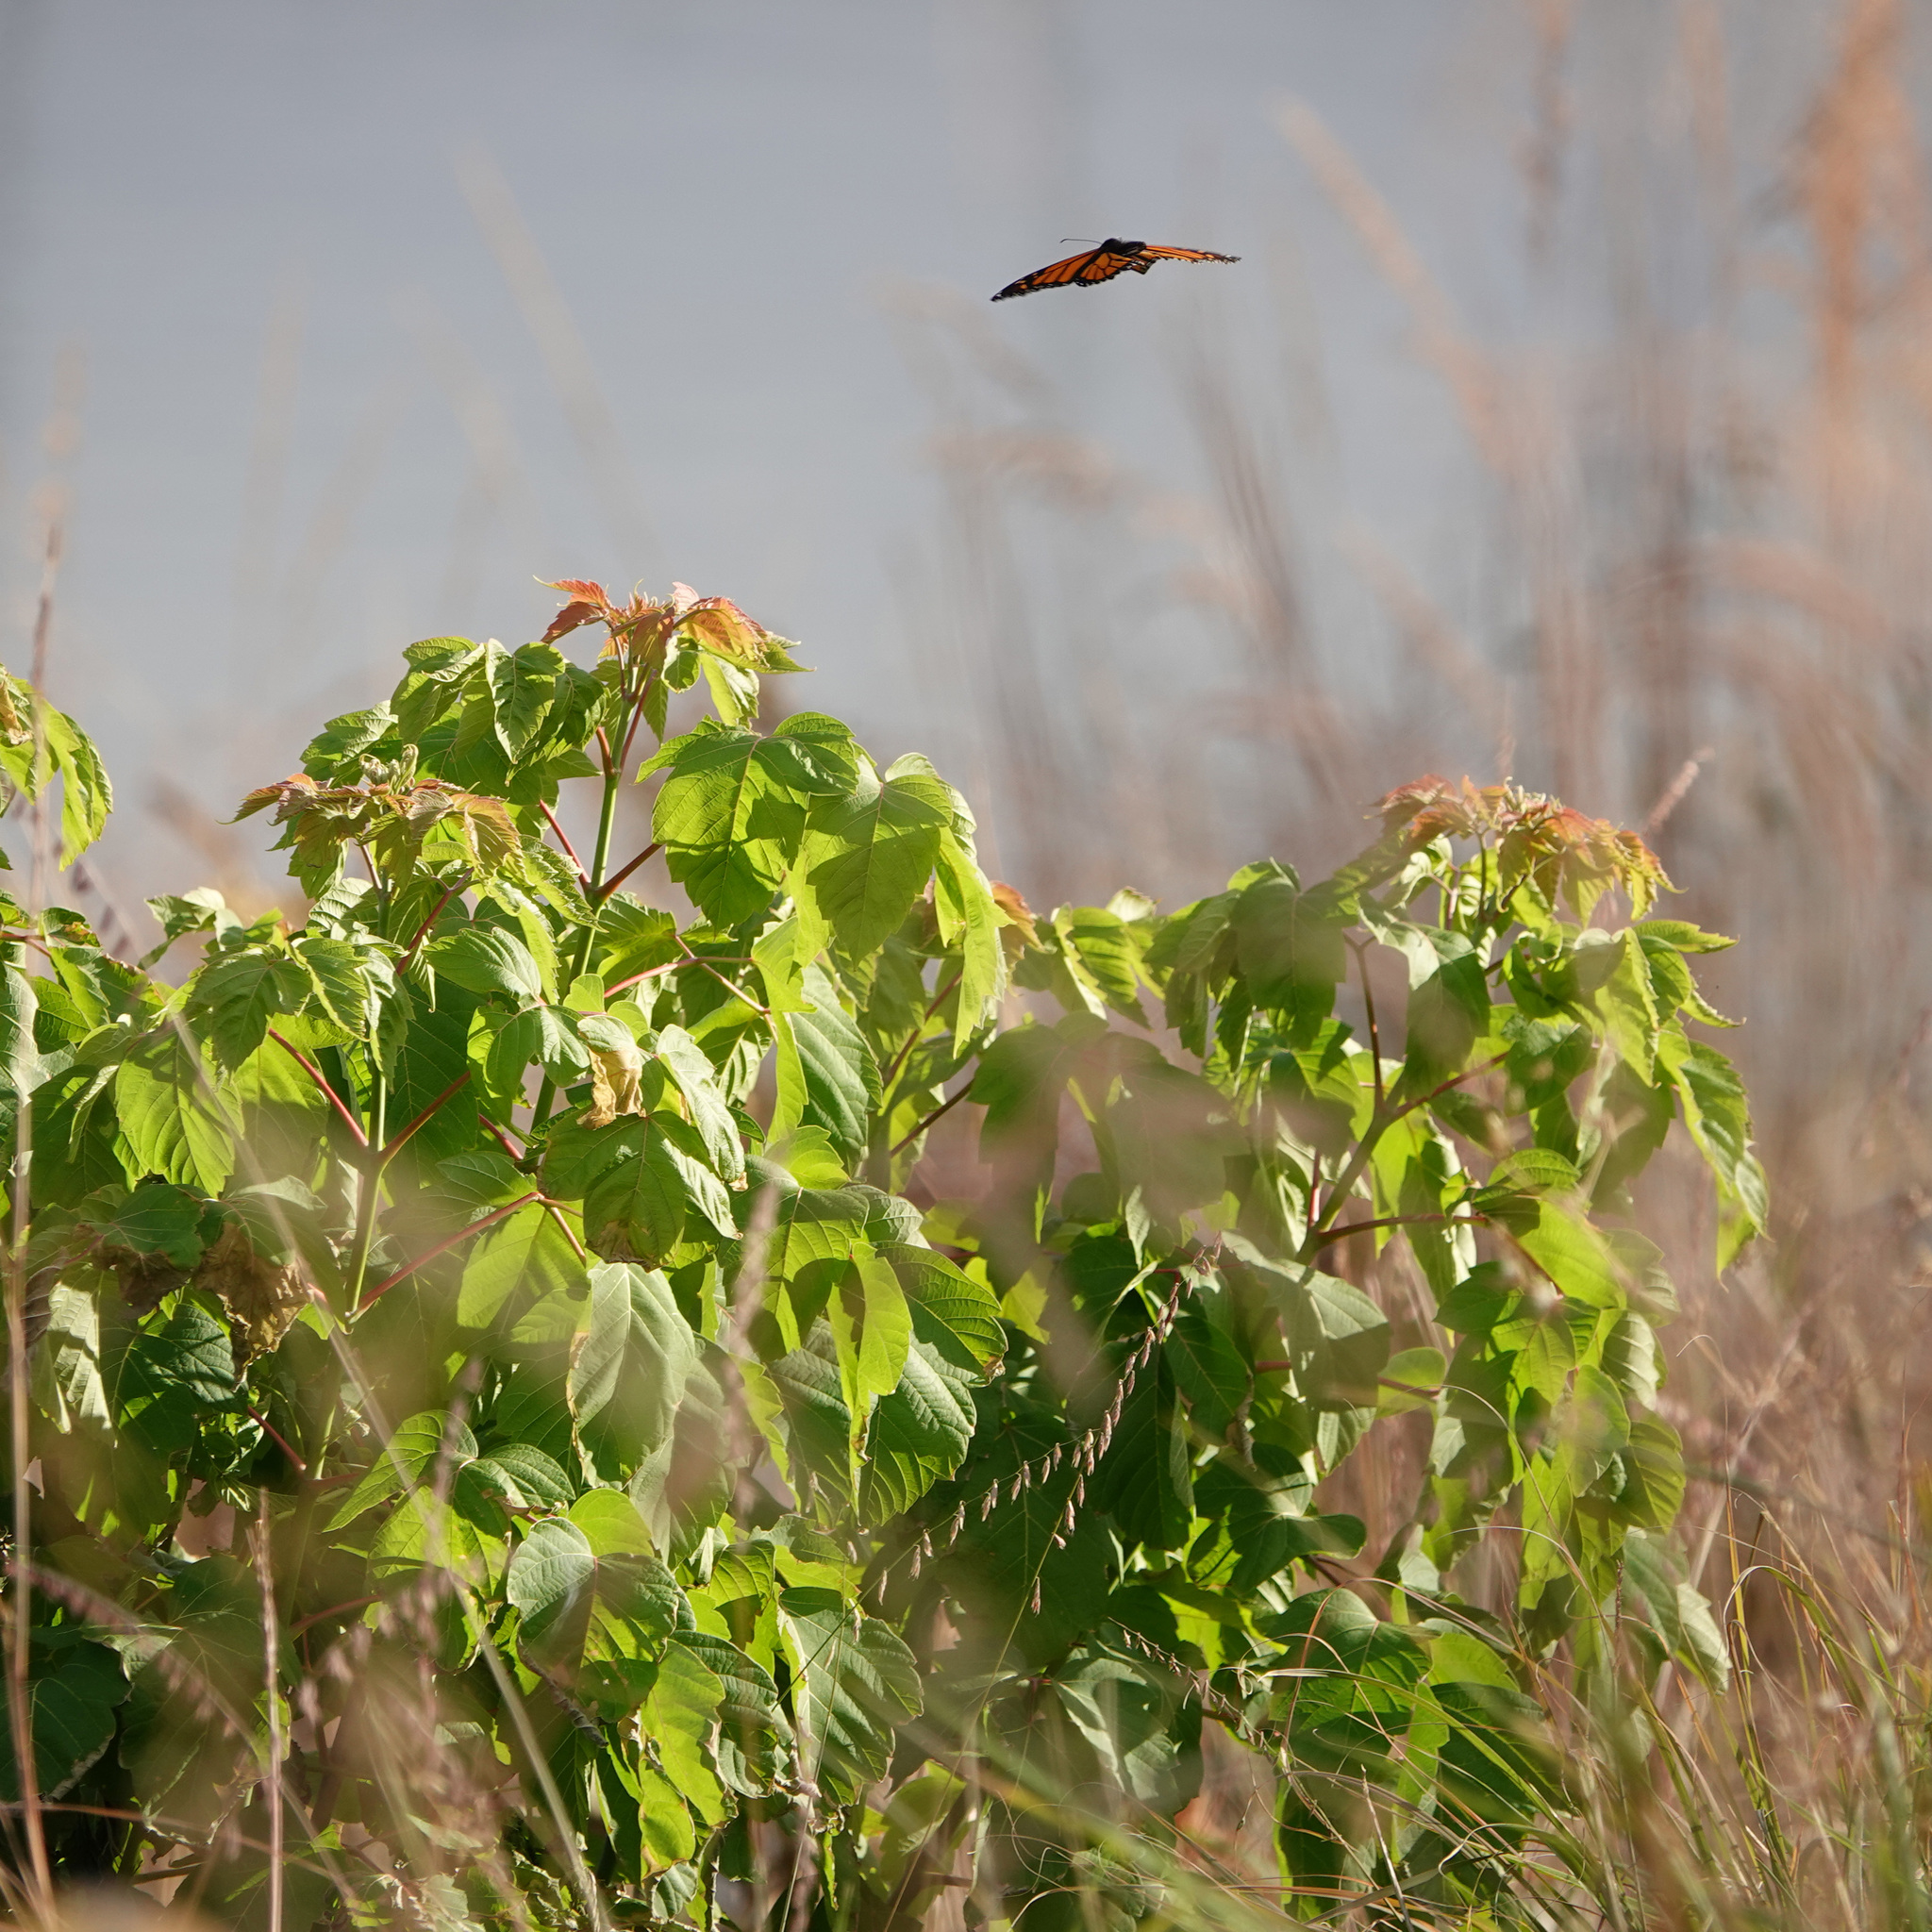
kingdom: Animalia
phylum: Arthropoda
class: Insecta
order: Lepidoptera
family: Nymphalidae
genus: Danaus
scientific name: Danaus plexippus
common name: Monarch
